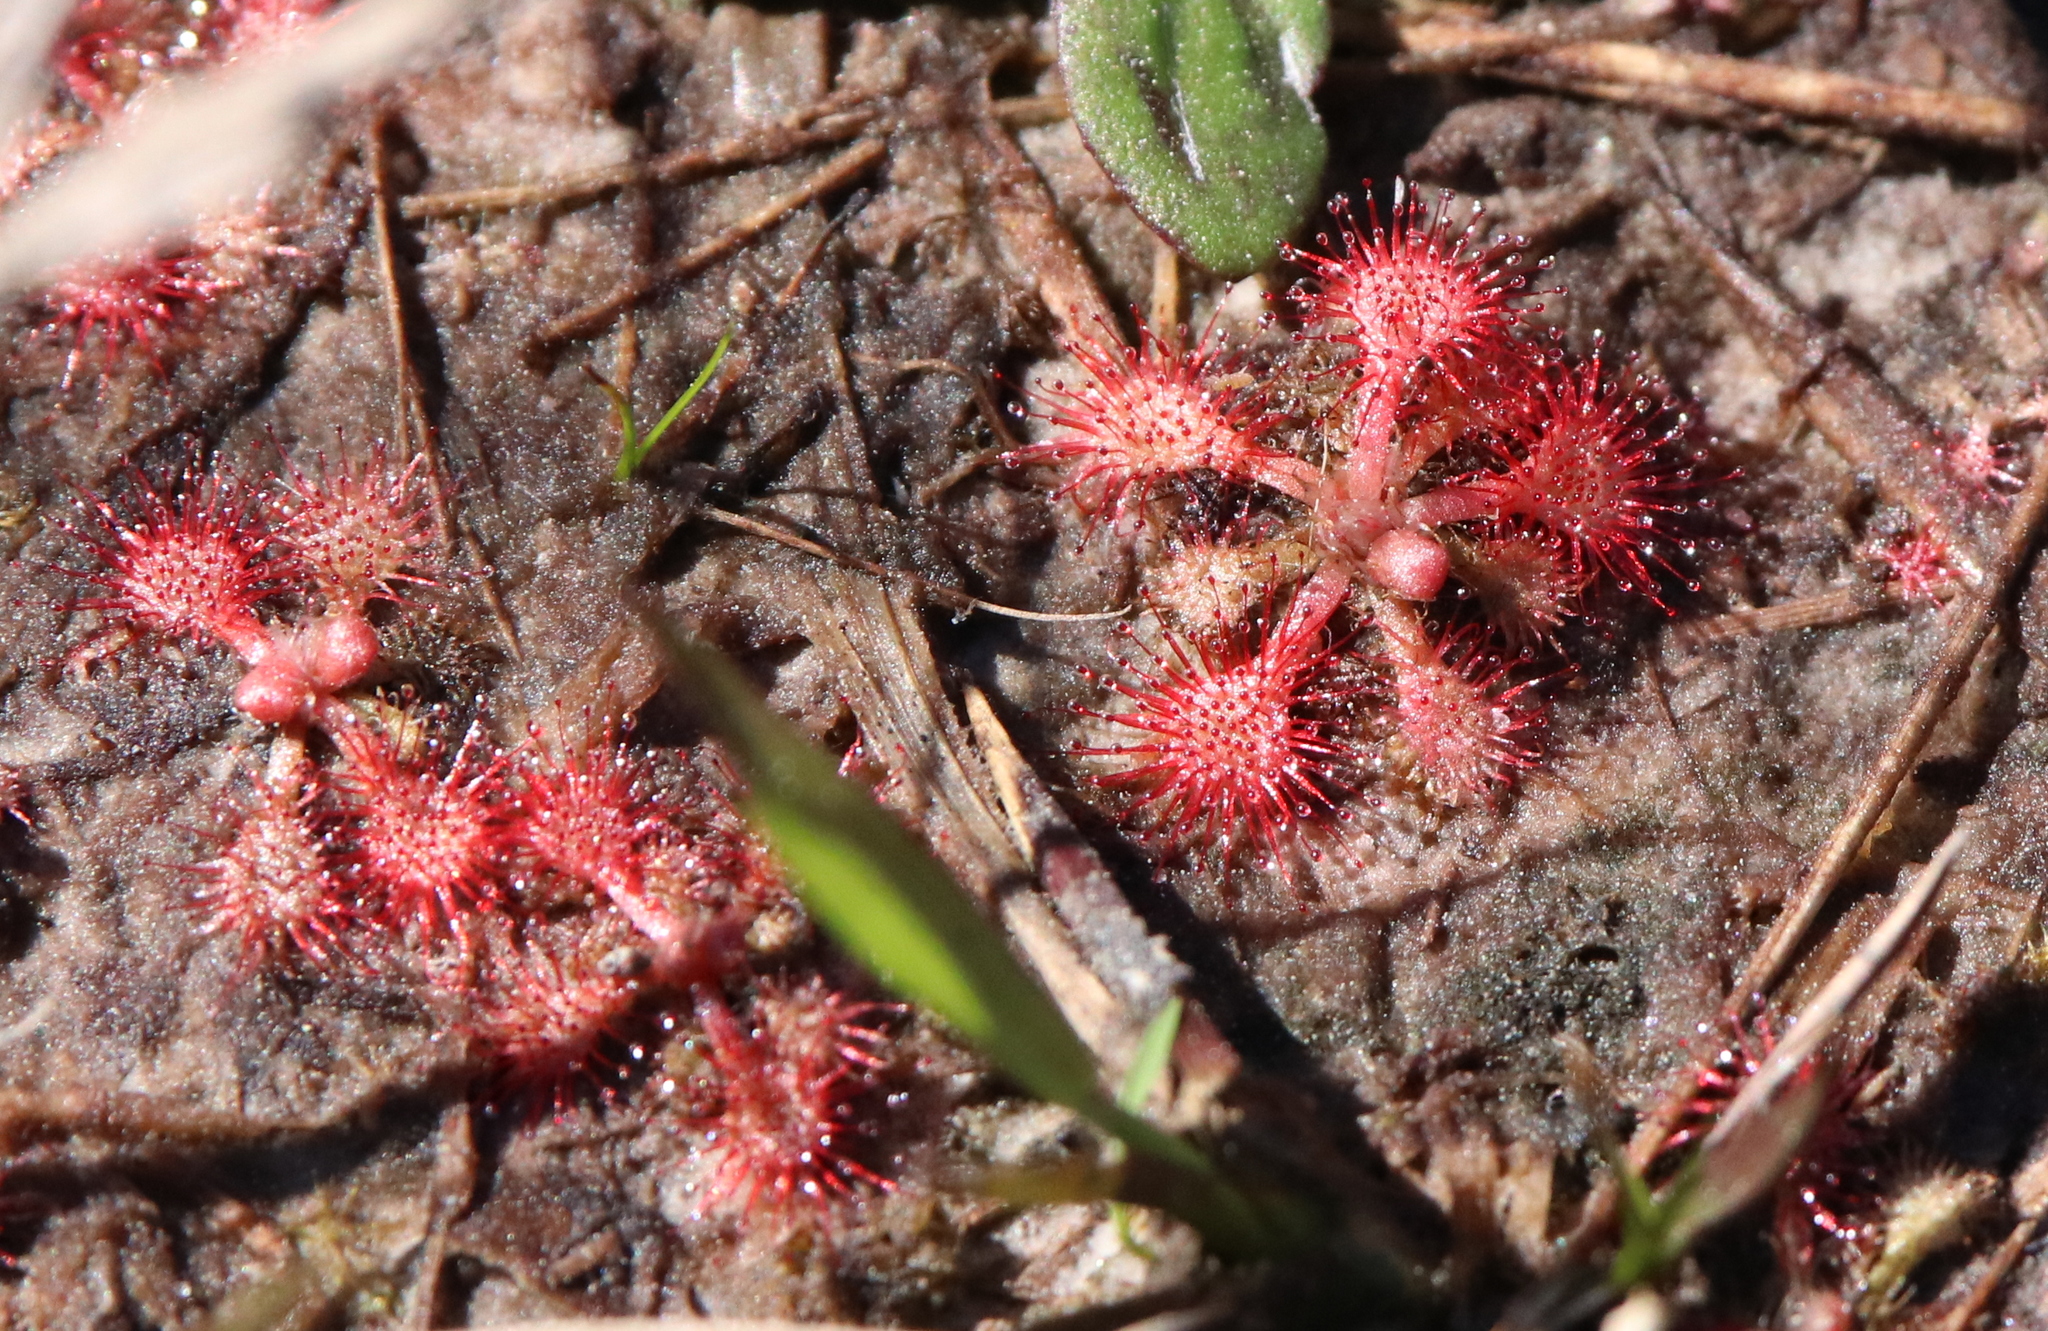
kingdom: Plantae
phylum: Tracheophyta
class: Magnoliopsida
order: Caryophyllales
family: Droseraceae
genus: Drosera
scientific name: Drosera capillaris
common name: Pink sundew
